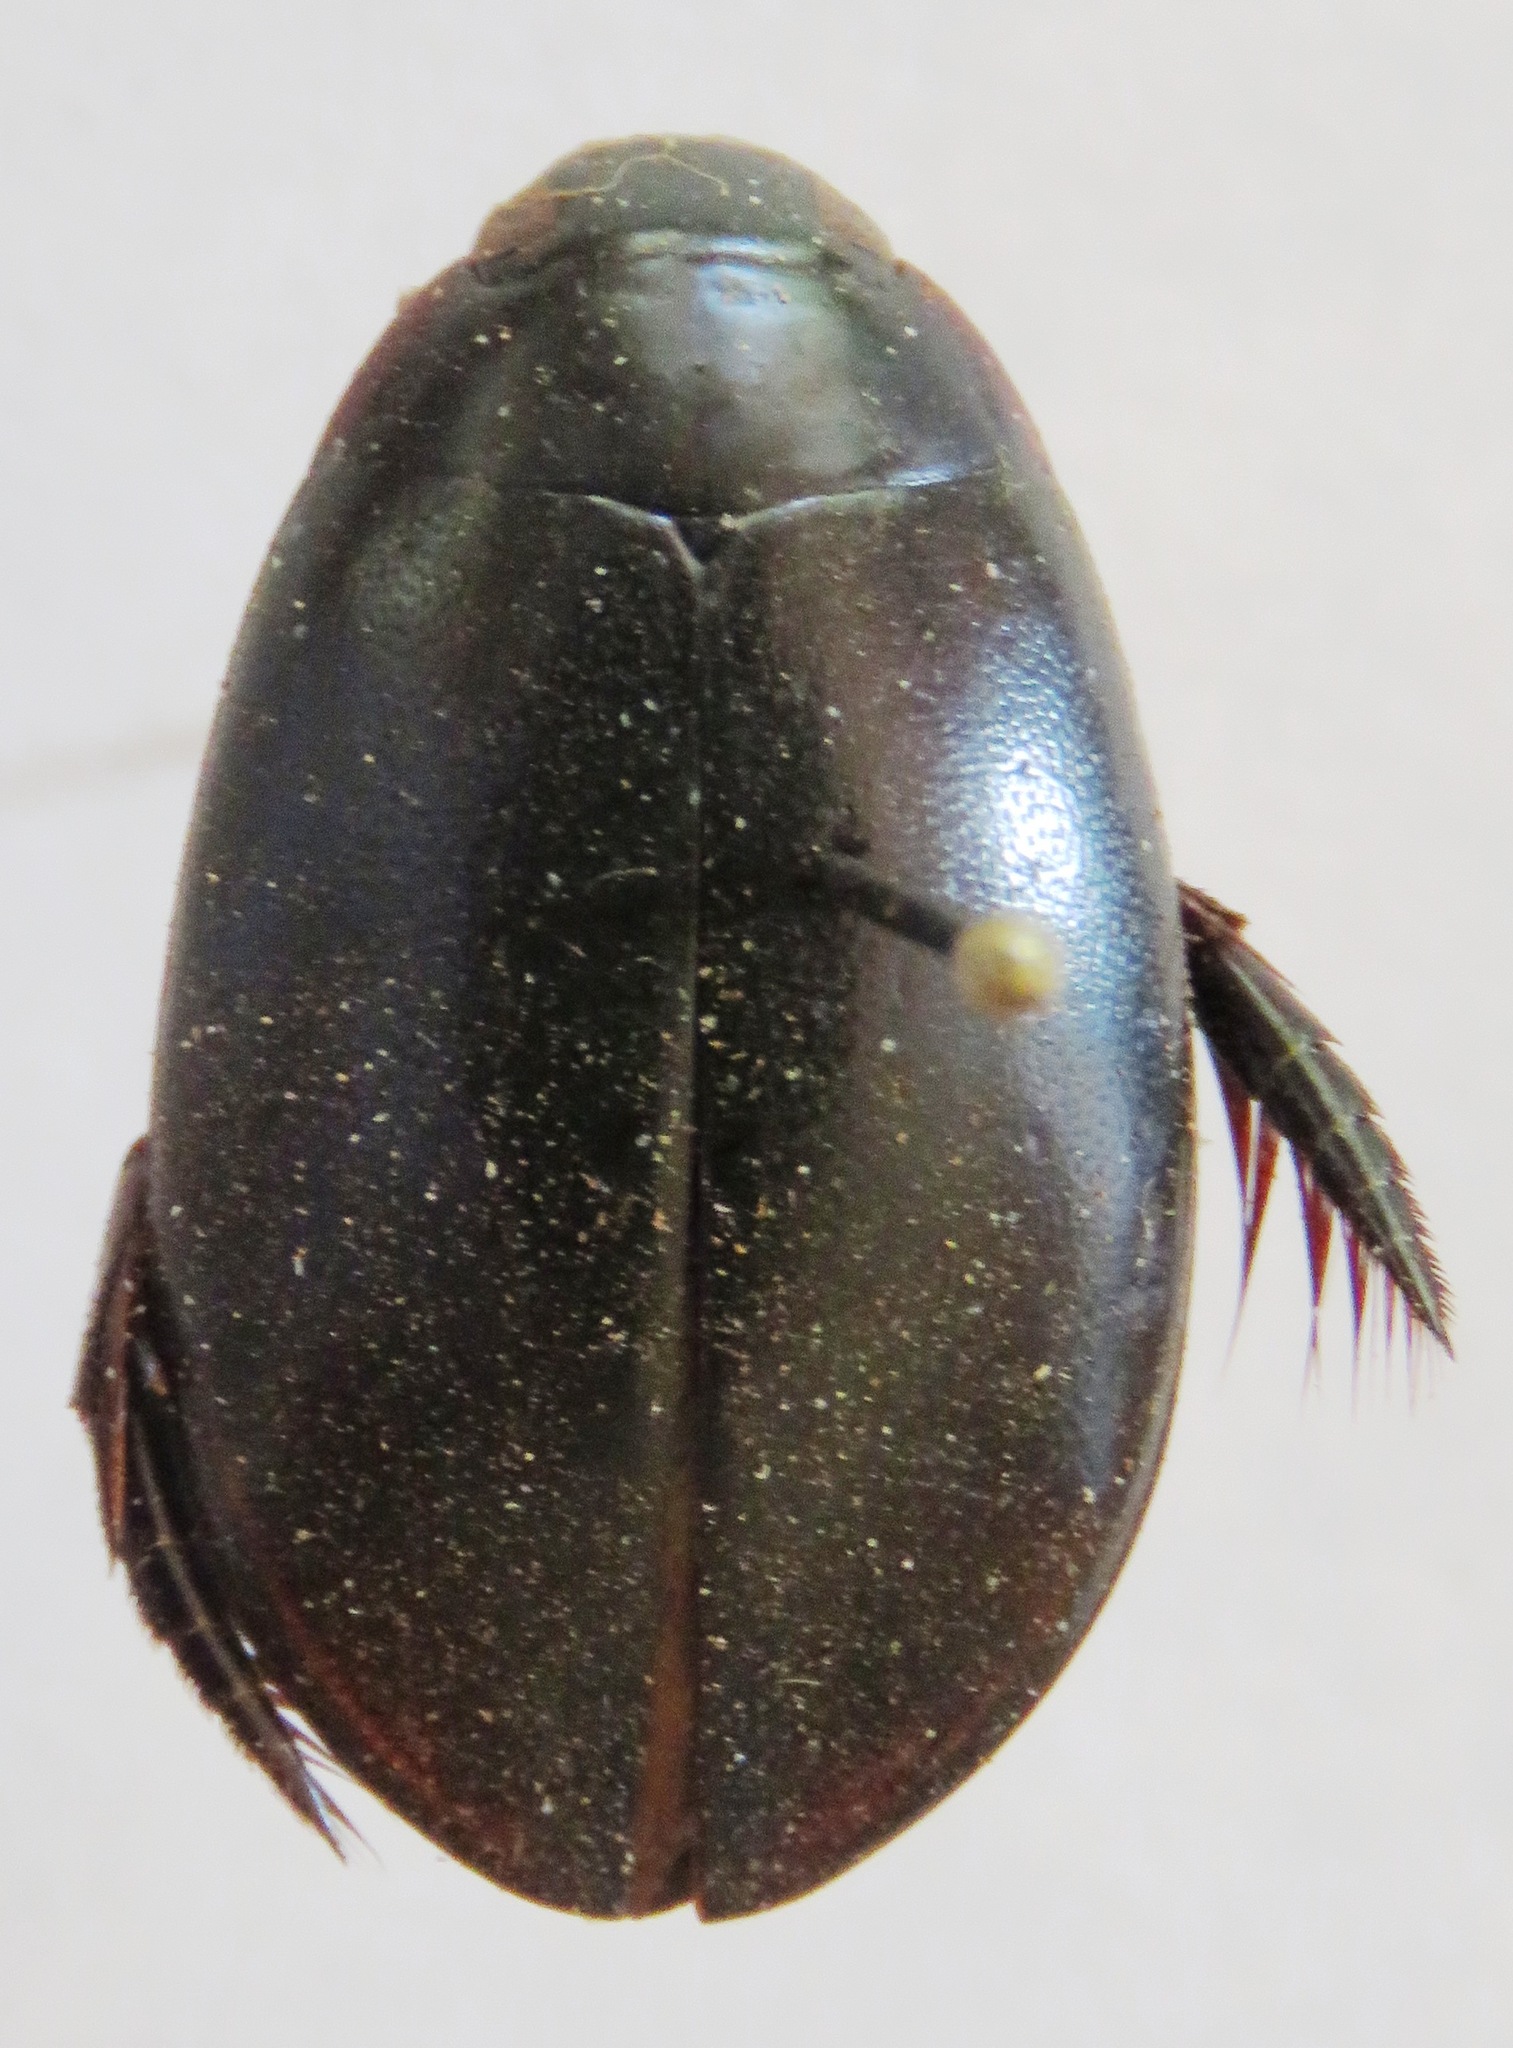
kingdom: Animalia
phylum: Arthropoda
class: Insecta
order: Coleoptera
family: Dytiscidae
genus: Megadytes
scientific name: Megadytes
